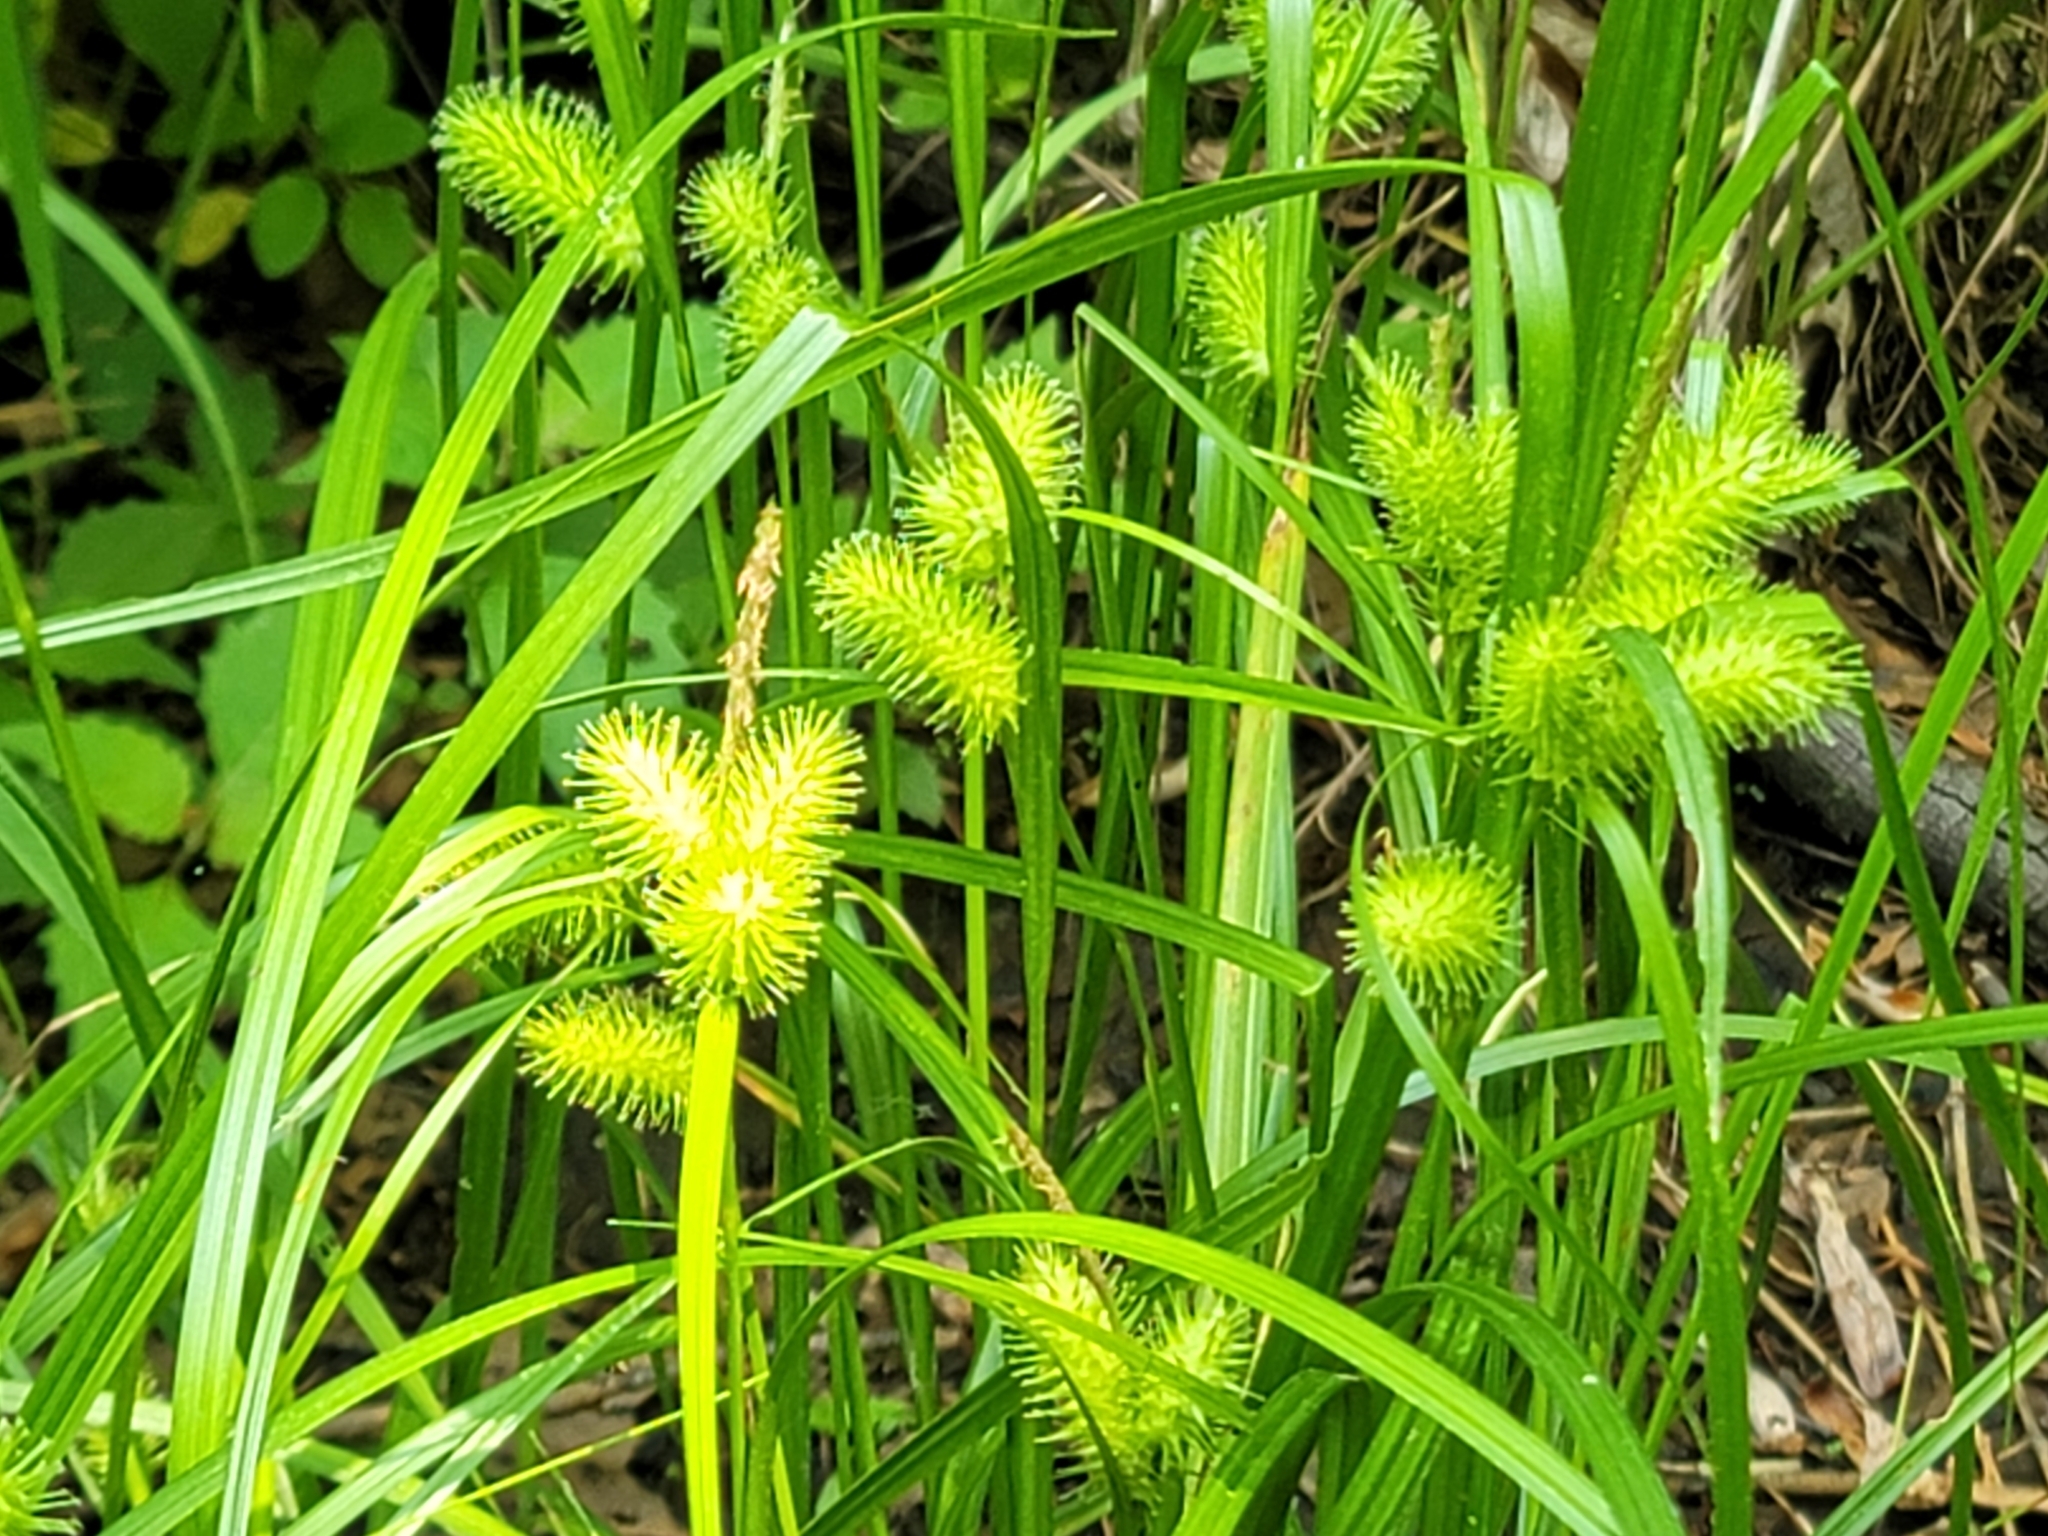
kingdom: Plantae
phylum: Tracheophyta
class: Liliopsida
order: Poales
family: Cyperaceae
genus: Carex
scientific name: Carex lurida
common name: Sallow sedge
